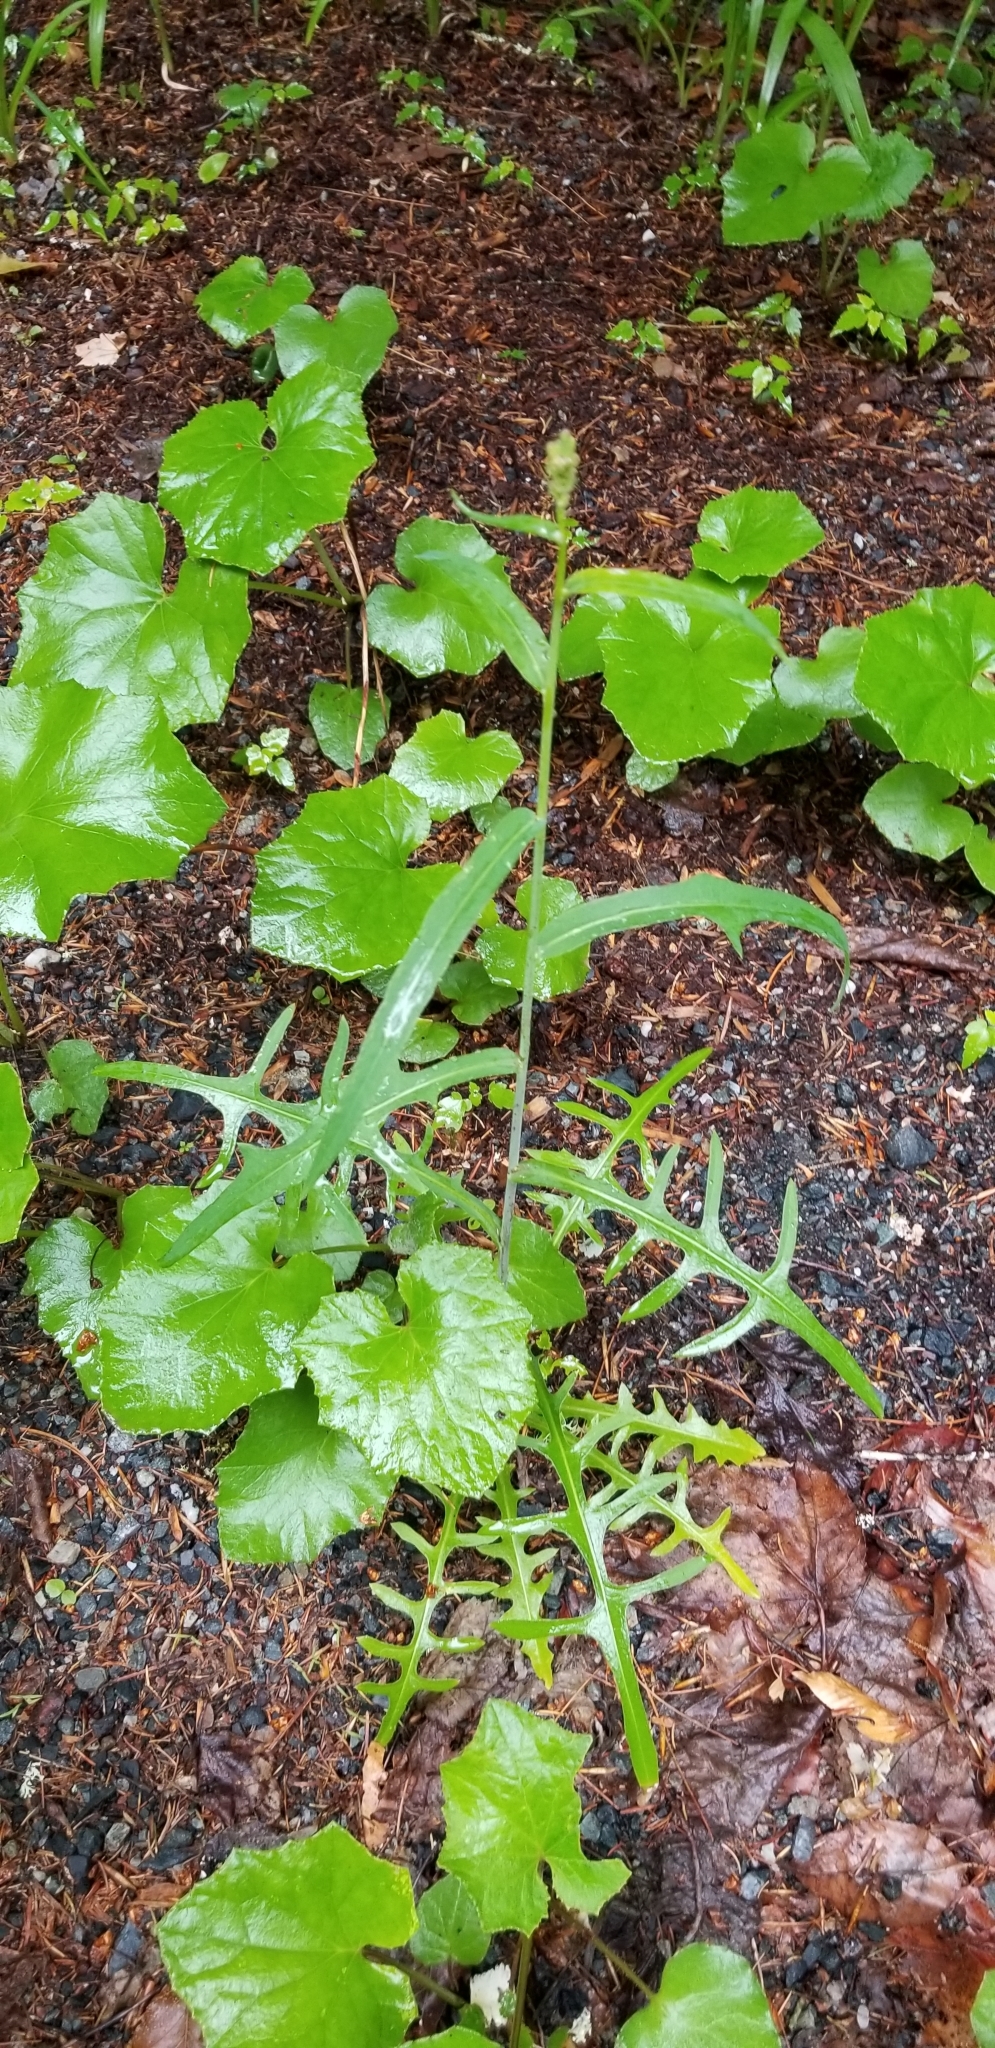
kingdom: Plantae
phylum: Tracheophyta
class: Magnoliopsida
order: Asterales
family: Asteraceae
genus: Tussilago
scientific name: Tussilago farfara
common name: Coltsfoot
